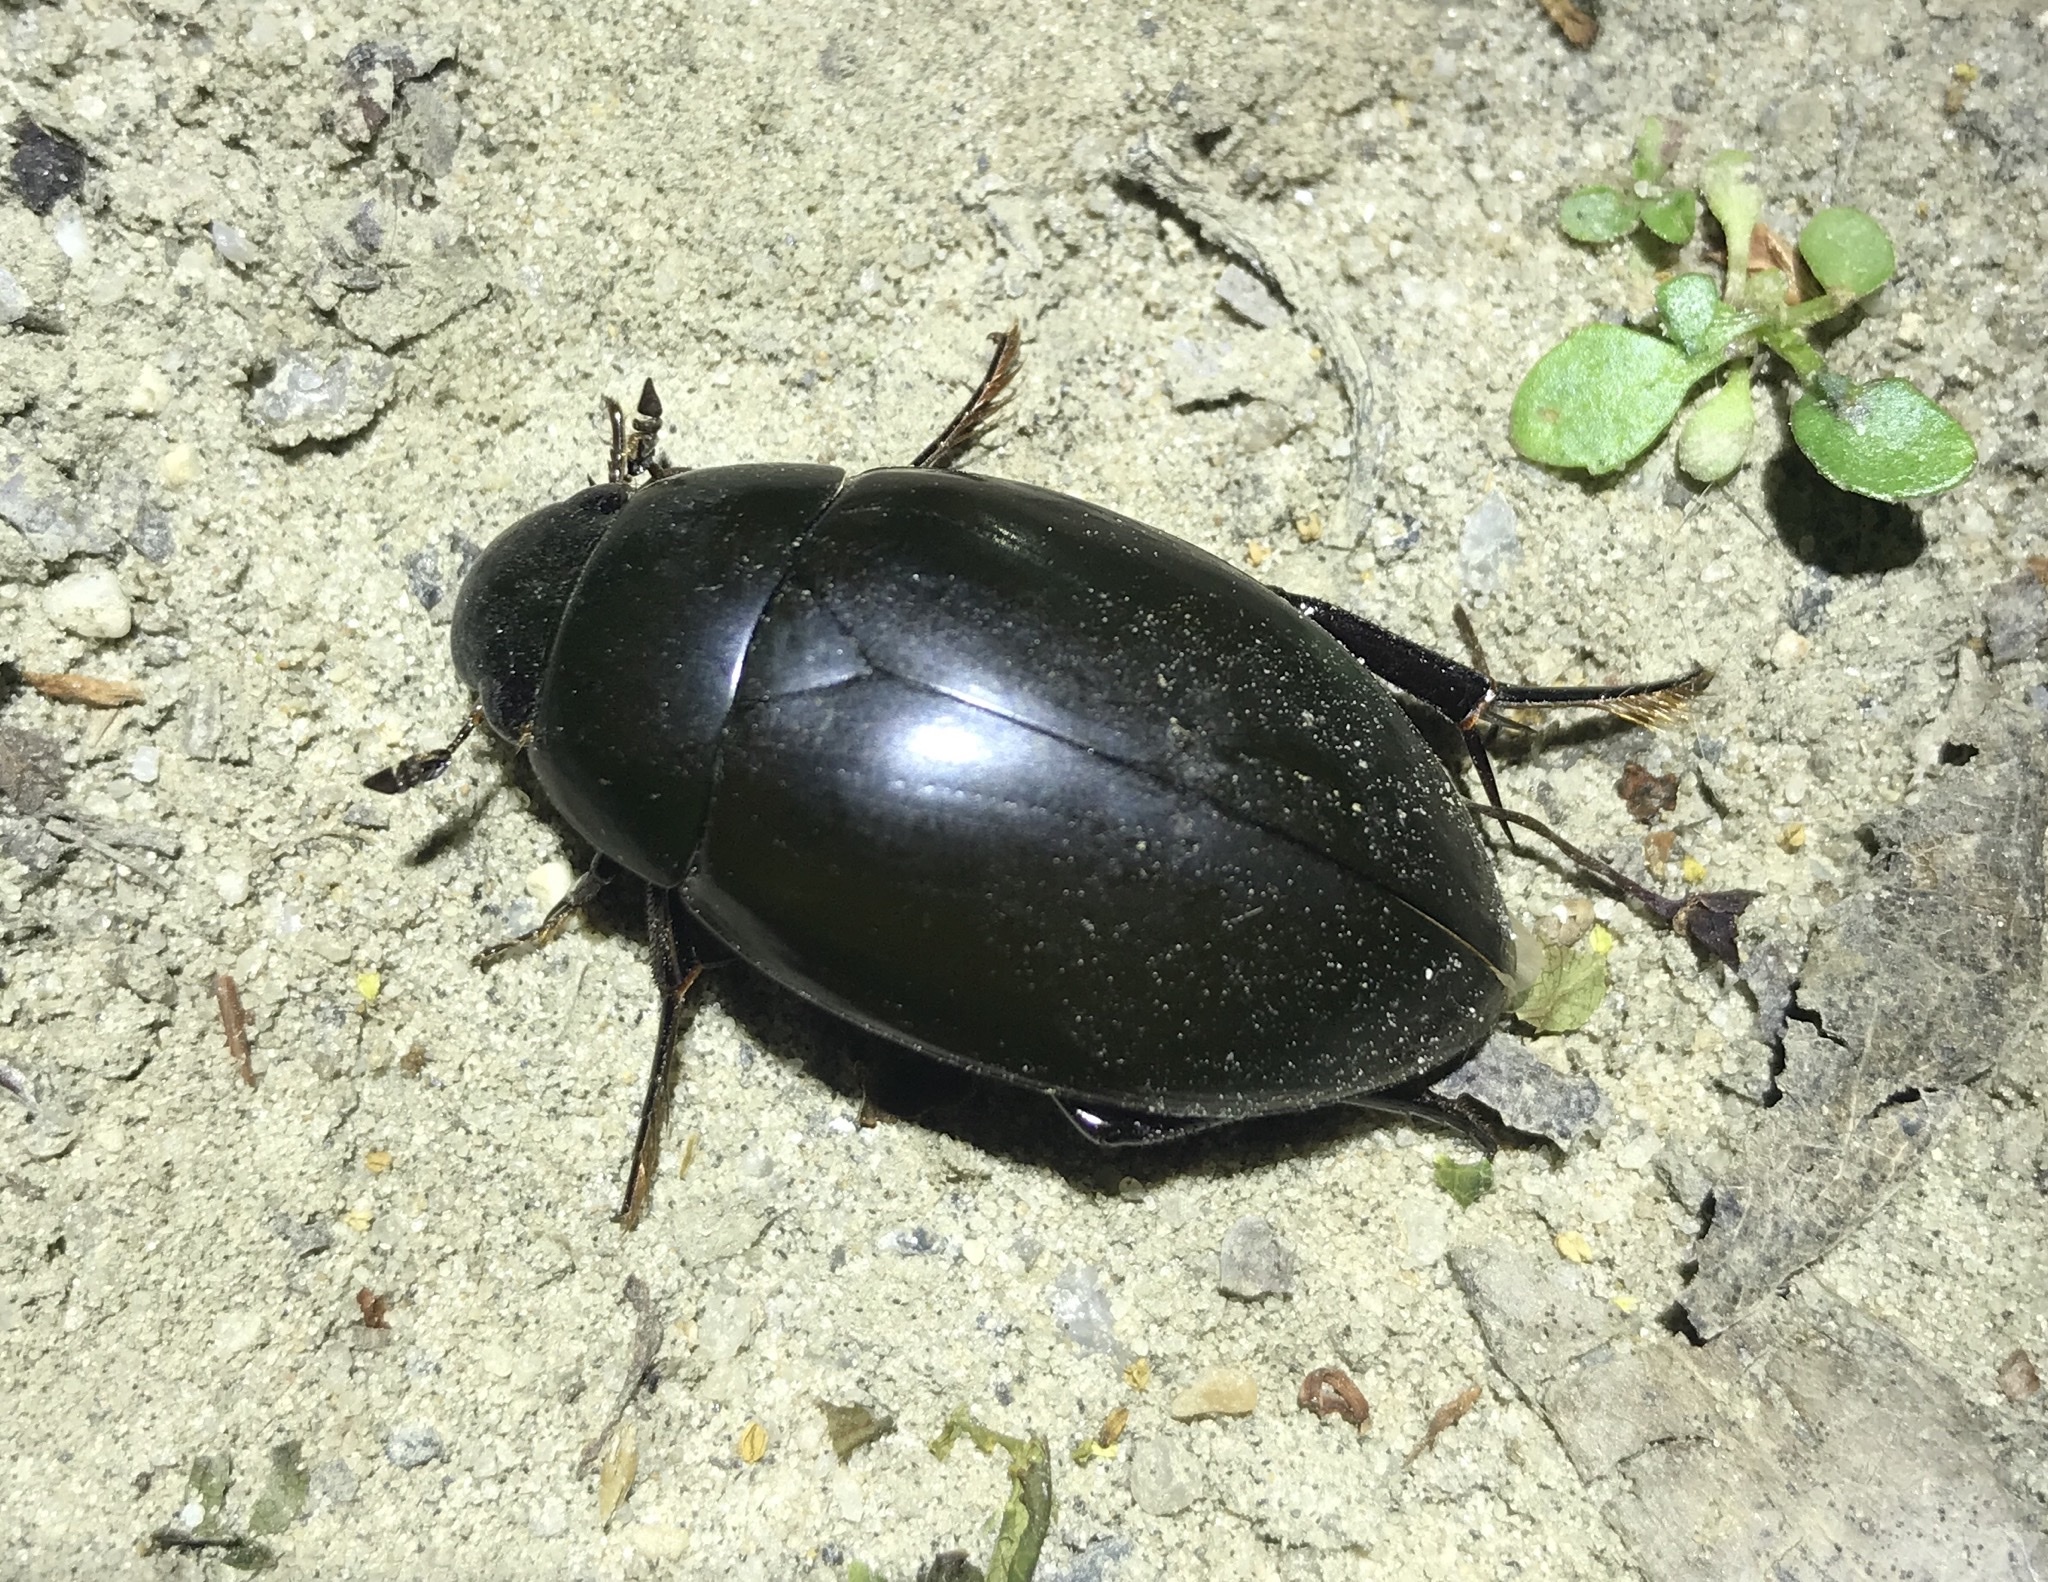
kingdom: Animalia
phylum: Arthropoda
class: Insecta
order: Coleoptera
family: Hydrophilidae
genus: Hydrophilus
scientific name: Hydrophilus ovatus
